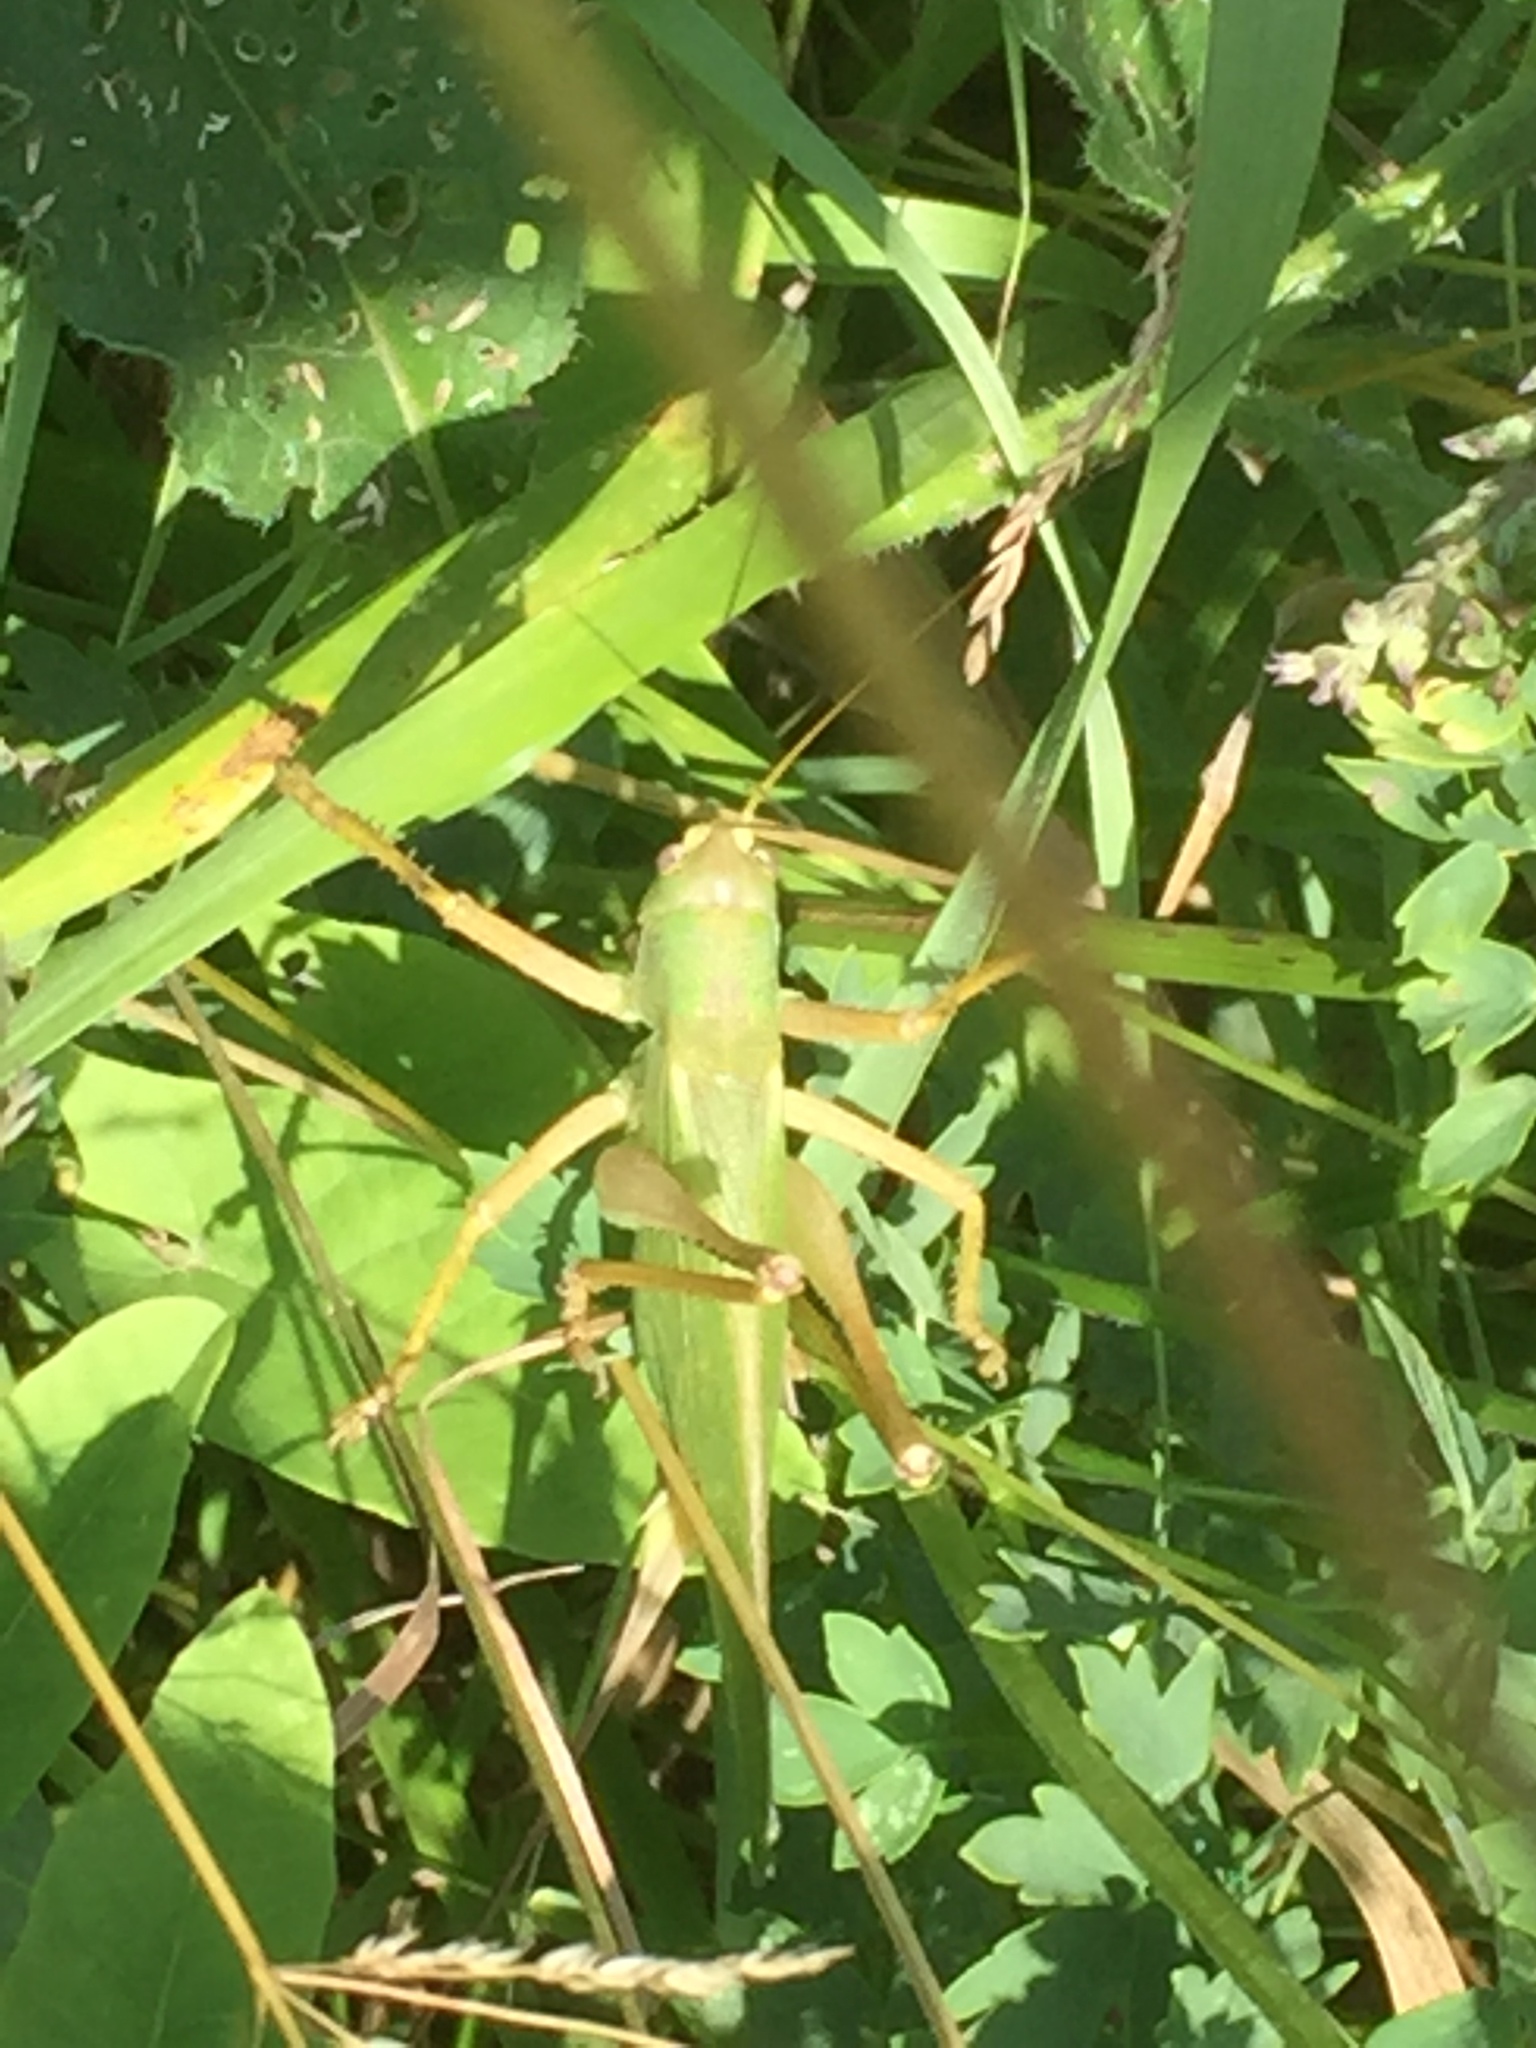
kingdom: Animalia
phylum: Arthropoda
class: Insecta
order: Orthoptera
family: Tettigoniidae
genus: Tettigonia
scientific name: Tettigonia caudata
